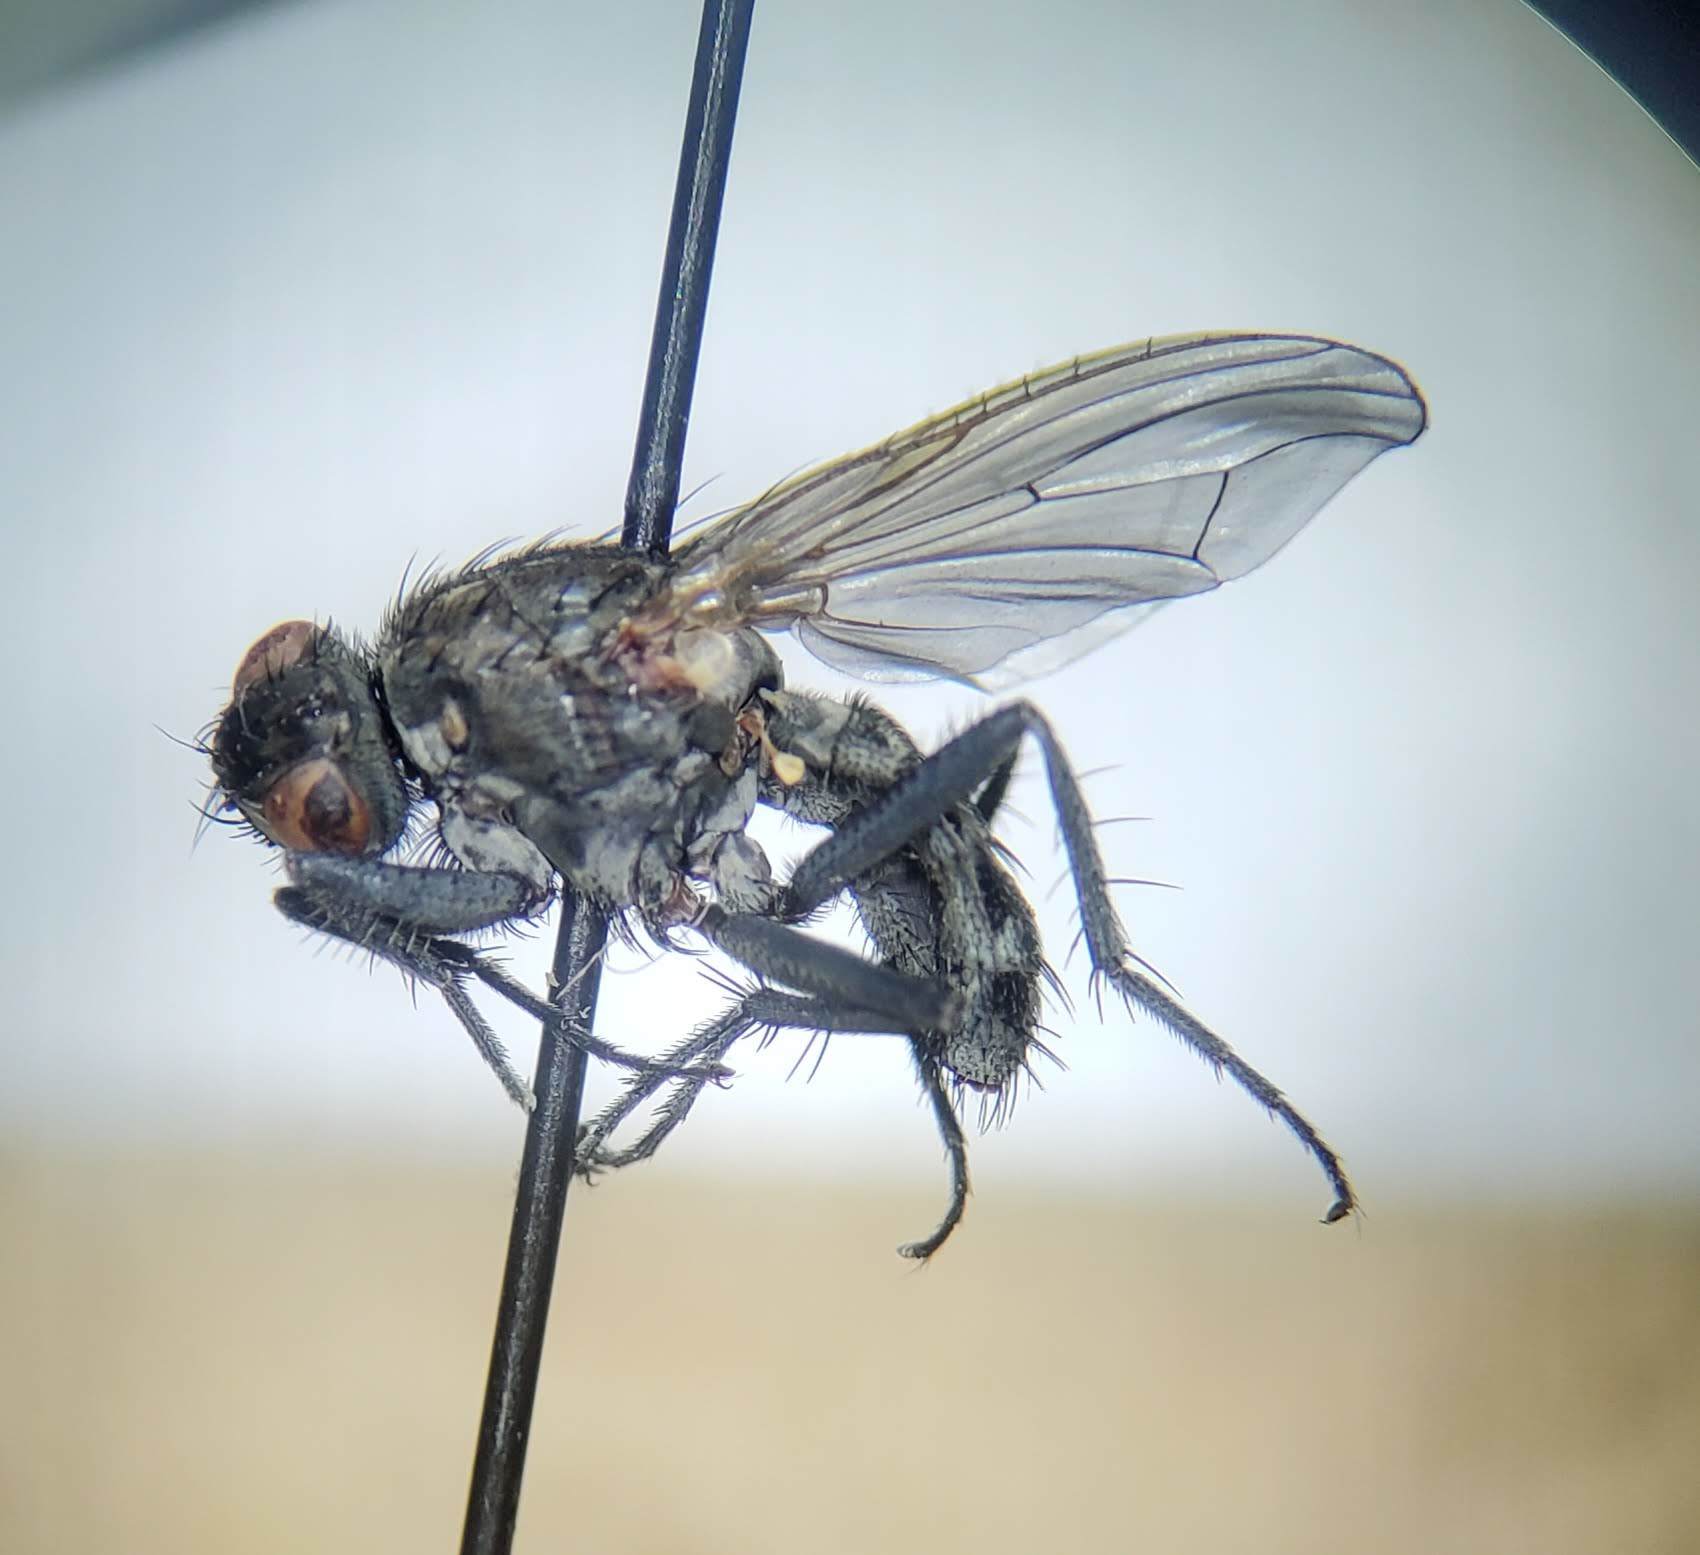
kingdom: Animalia
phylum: Arthropoda
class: Insecta
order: Diptera
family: Anthomyiidae
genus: Fucellia
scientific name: Fucellia costalis
